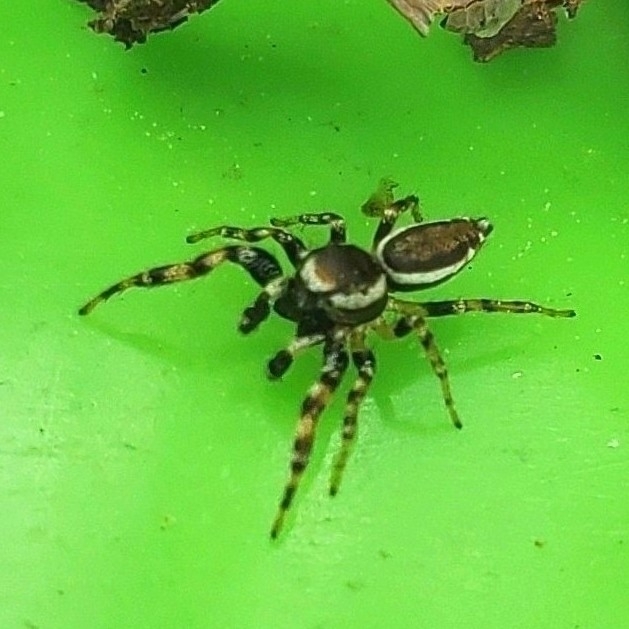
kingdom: Animalia
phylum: Arthropoda
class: Arachnida
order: Araneae
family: Salticidae
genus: Pelegrina
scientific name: Pelegrina proterva
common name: Common white-cheeked jumping spider
